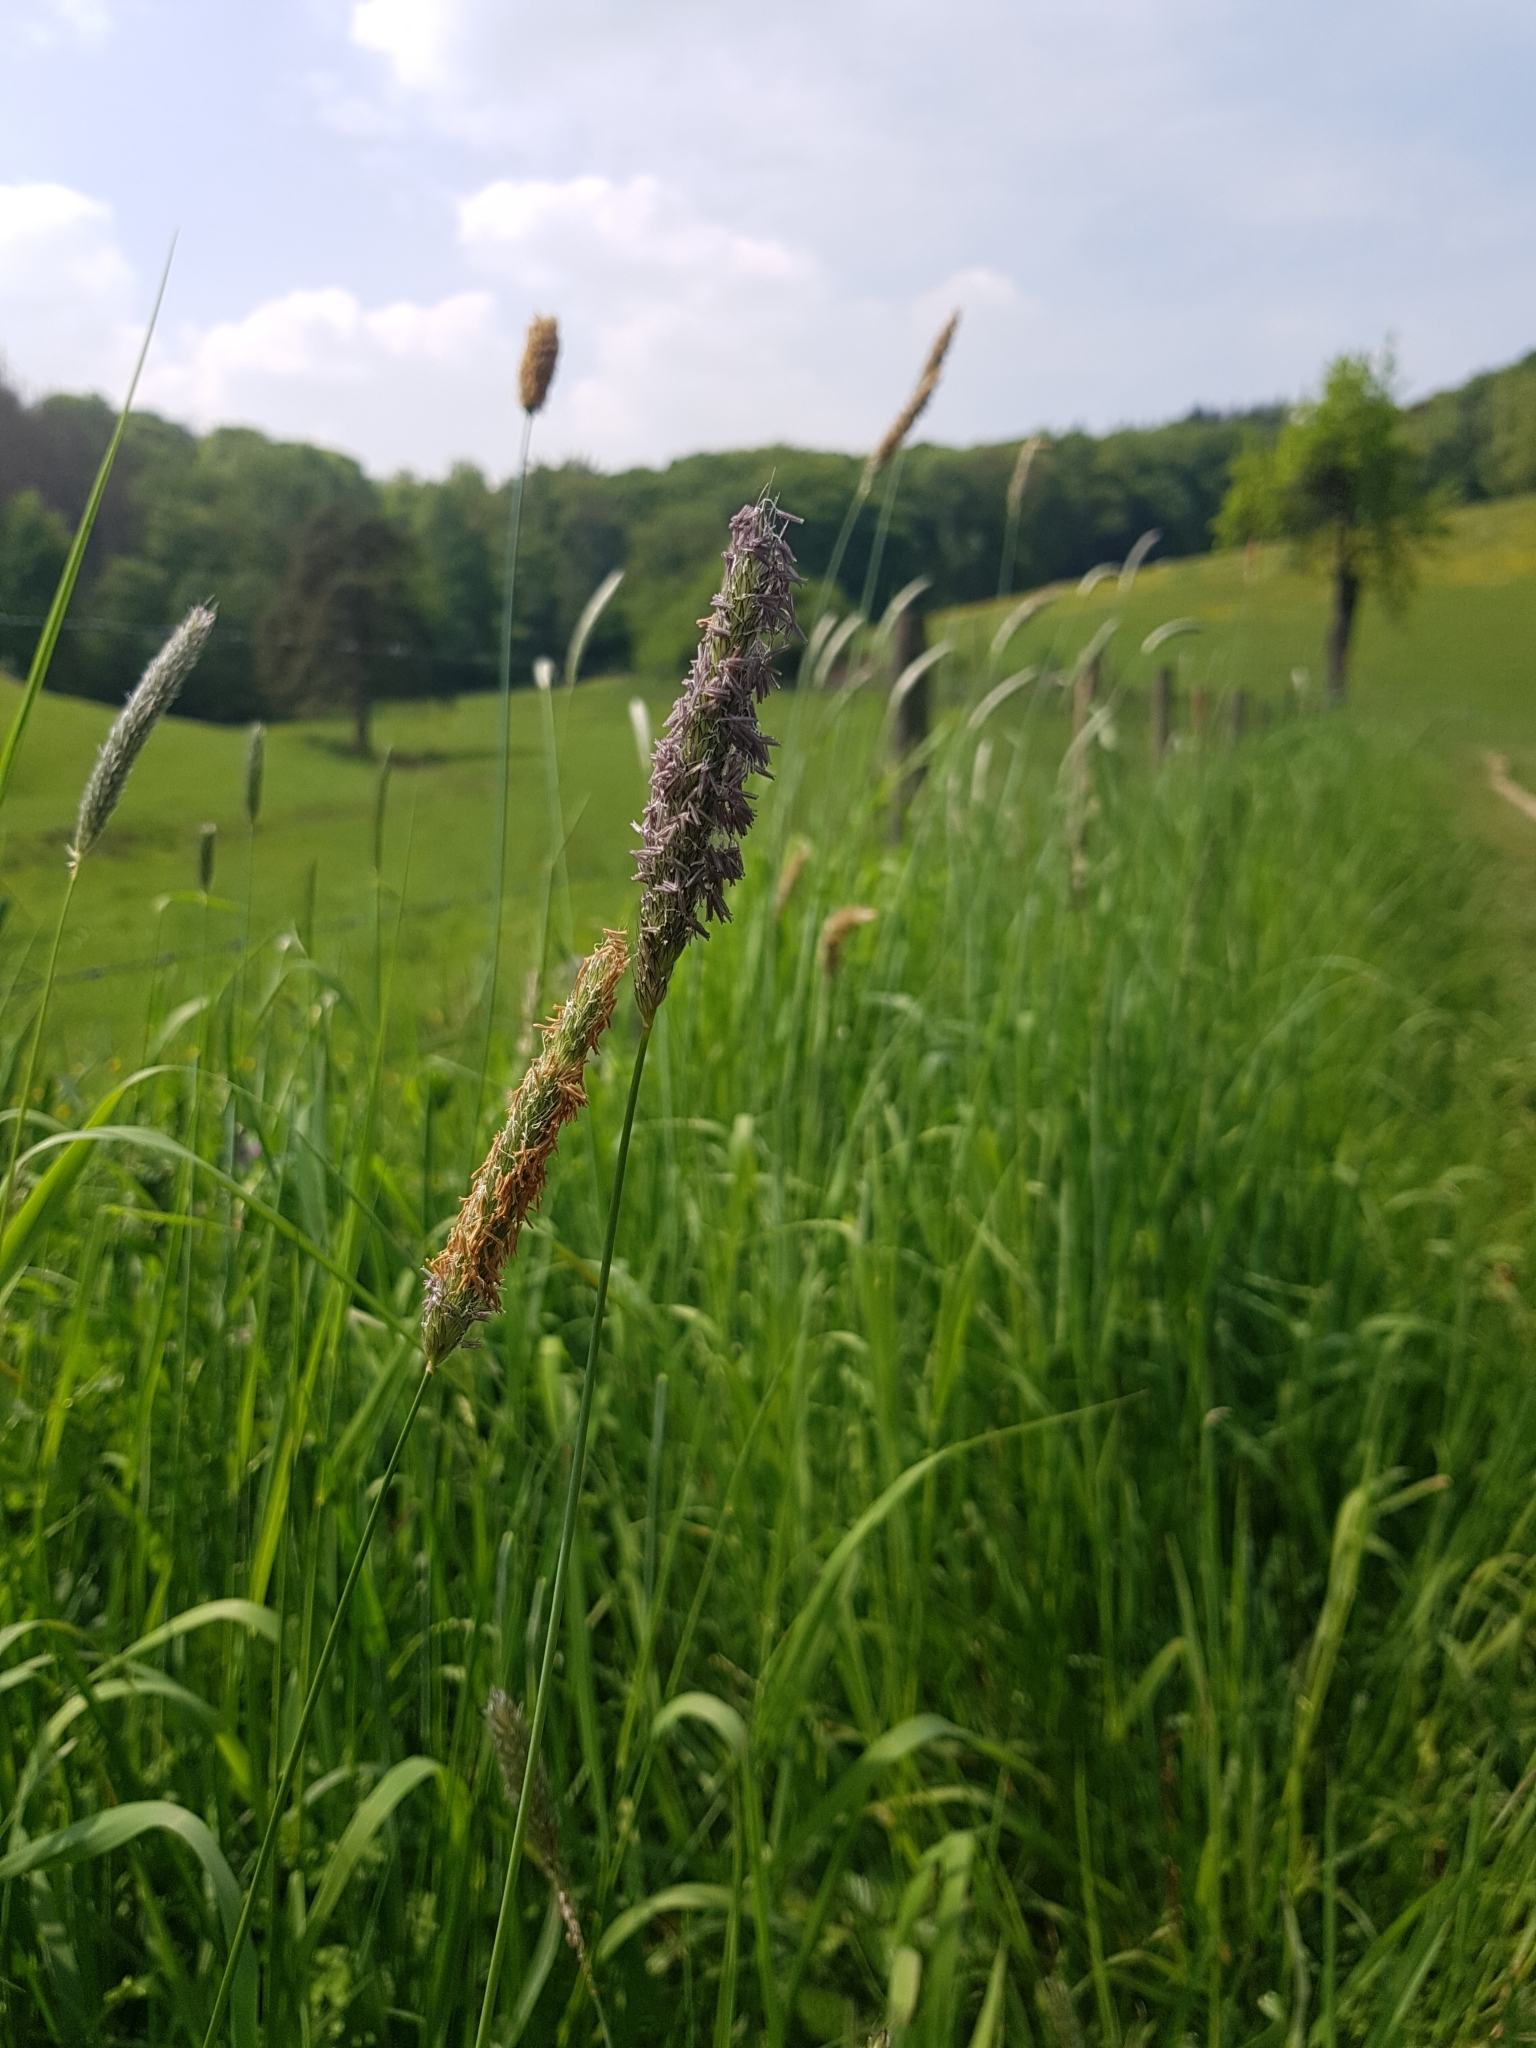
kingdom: Plantae
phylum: Tracheophyta
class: Liliopsida
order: Poales
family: Poaceae
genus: Alopecurus
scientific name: Alopecurus pratensis
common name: Meadow foxtail
